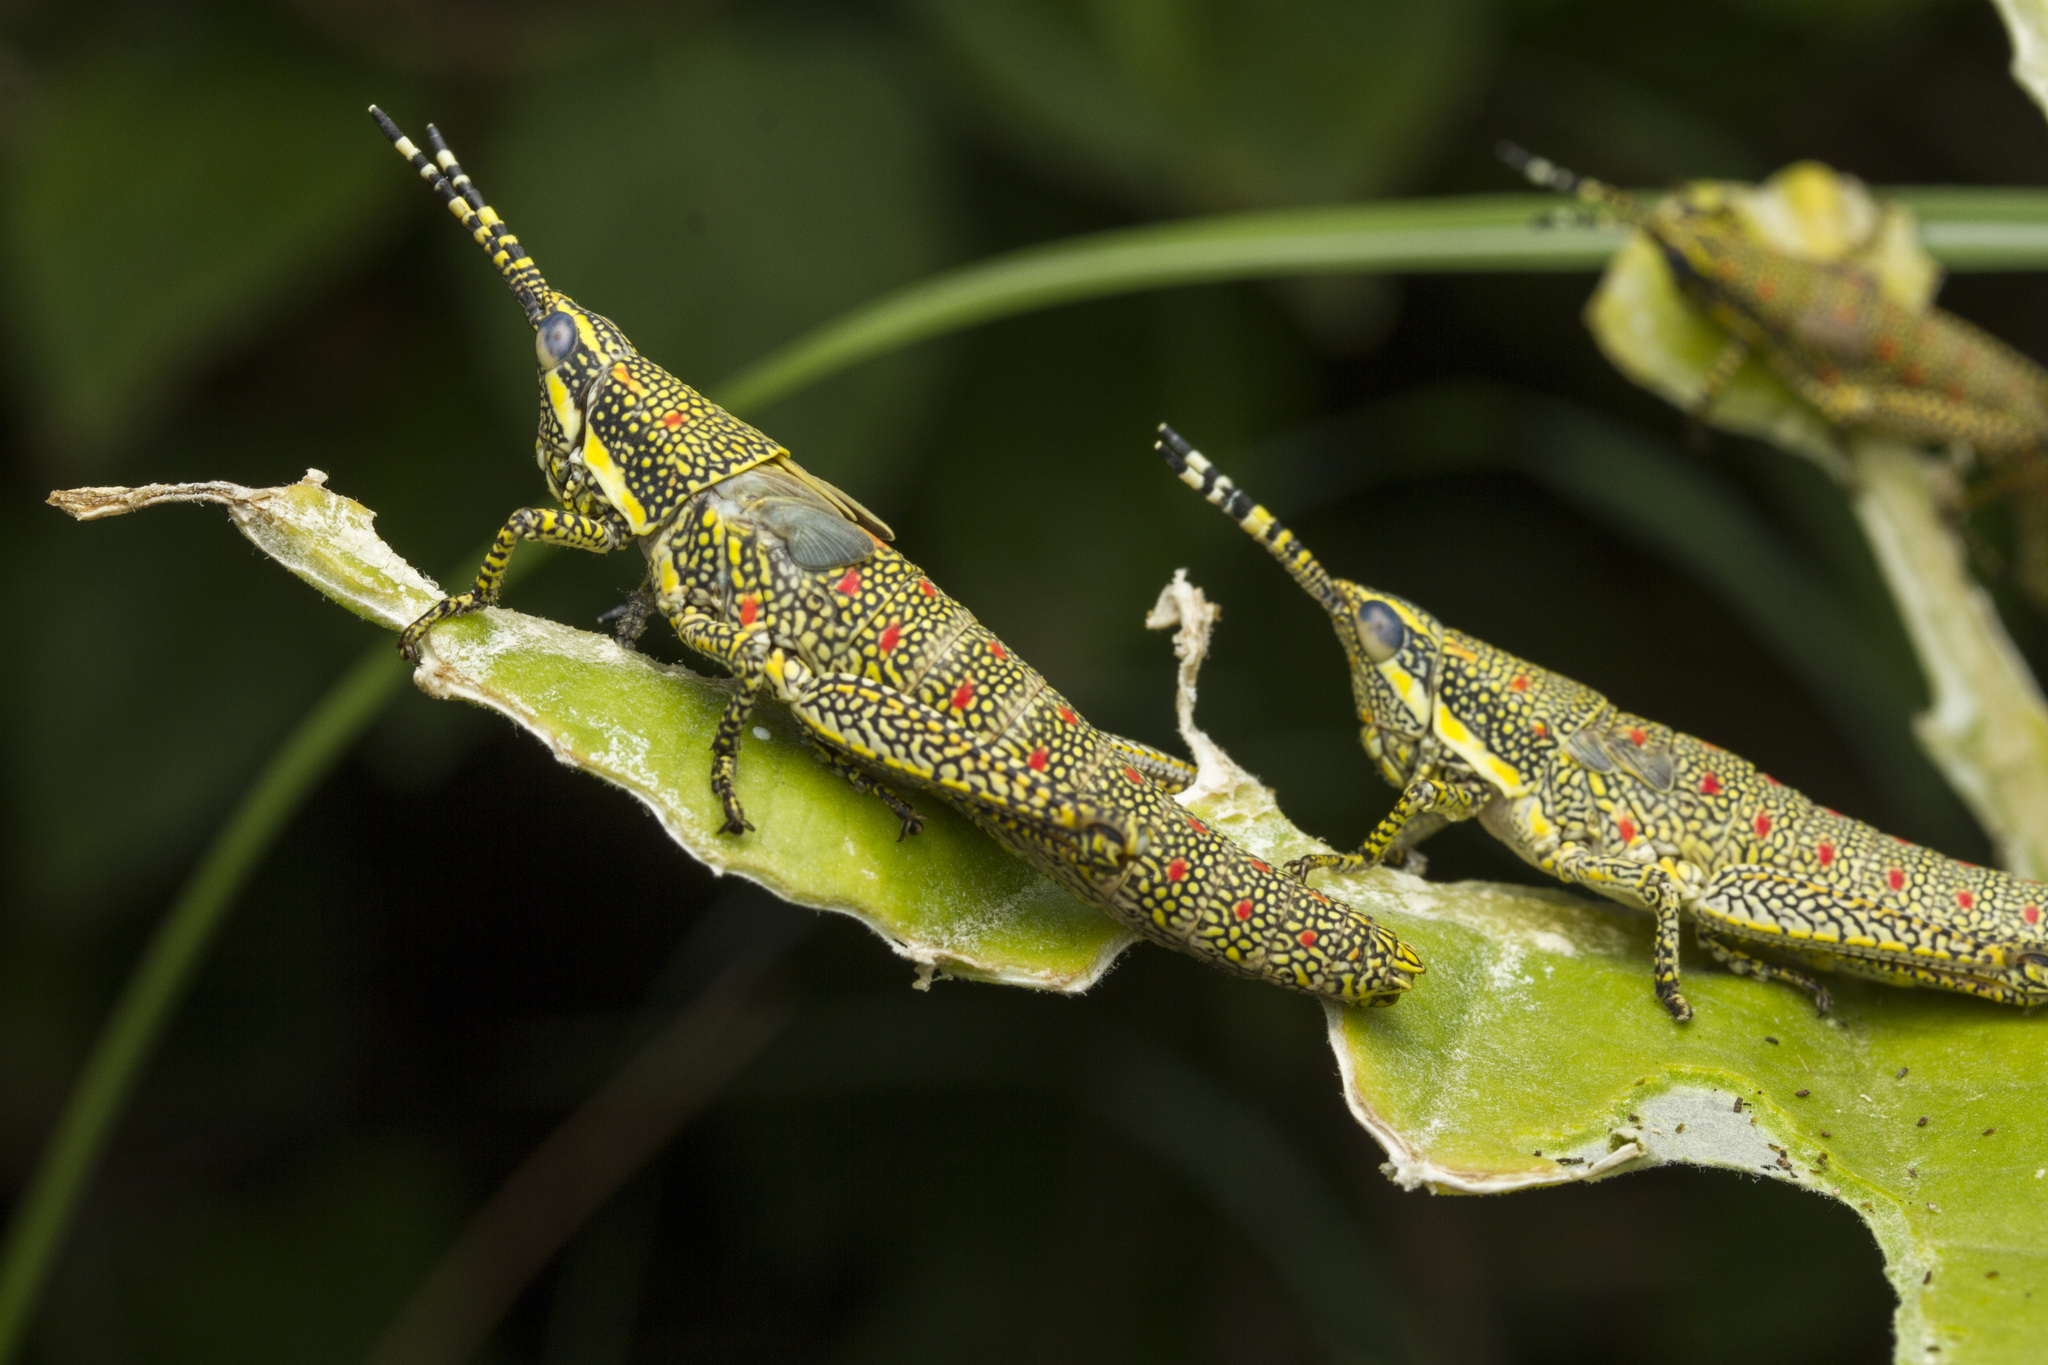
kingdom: Animalia
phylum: Arthropoda
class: Insecta
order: Orthoptera
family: Pyrgomorphidae
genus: Poekilocerus
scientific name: Poekilocerus pictus
